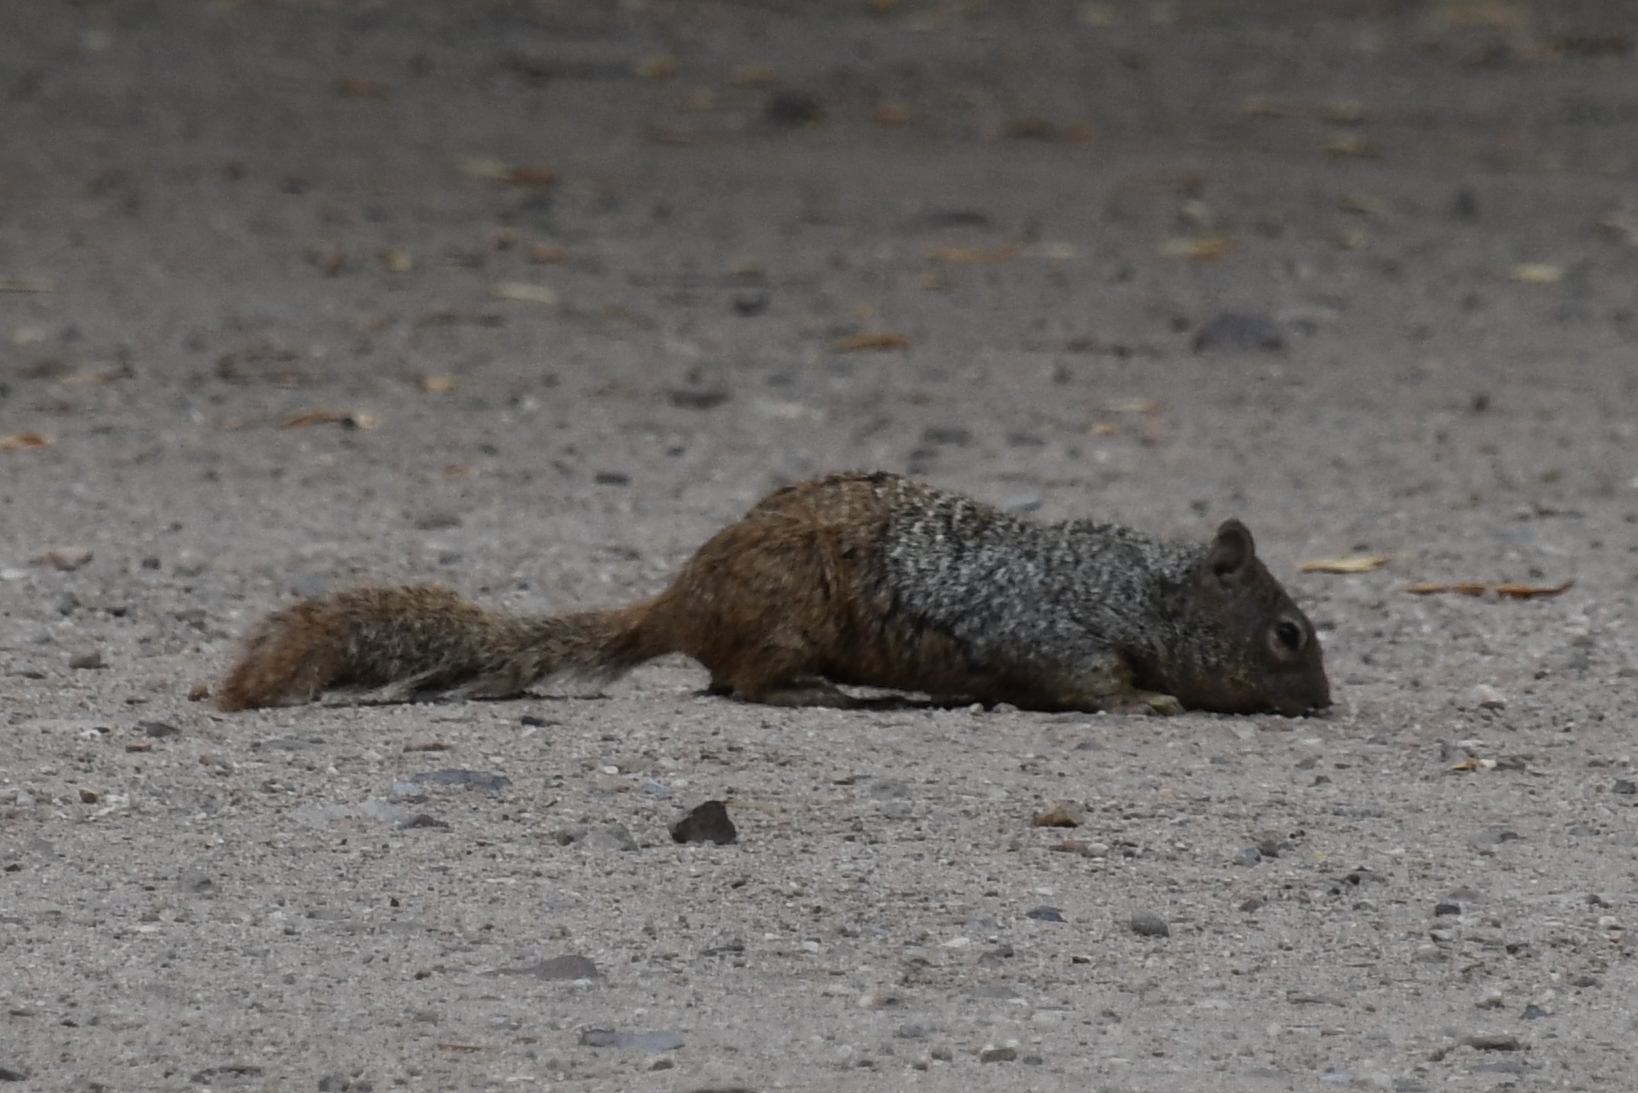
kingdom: Animalia
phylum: Chordata
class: Mammalia
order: Rodentia
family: Sciuridae
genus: Otospermophilus
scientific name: Otospermophilus variegatus
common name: Rock squirrel
